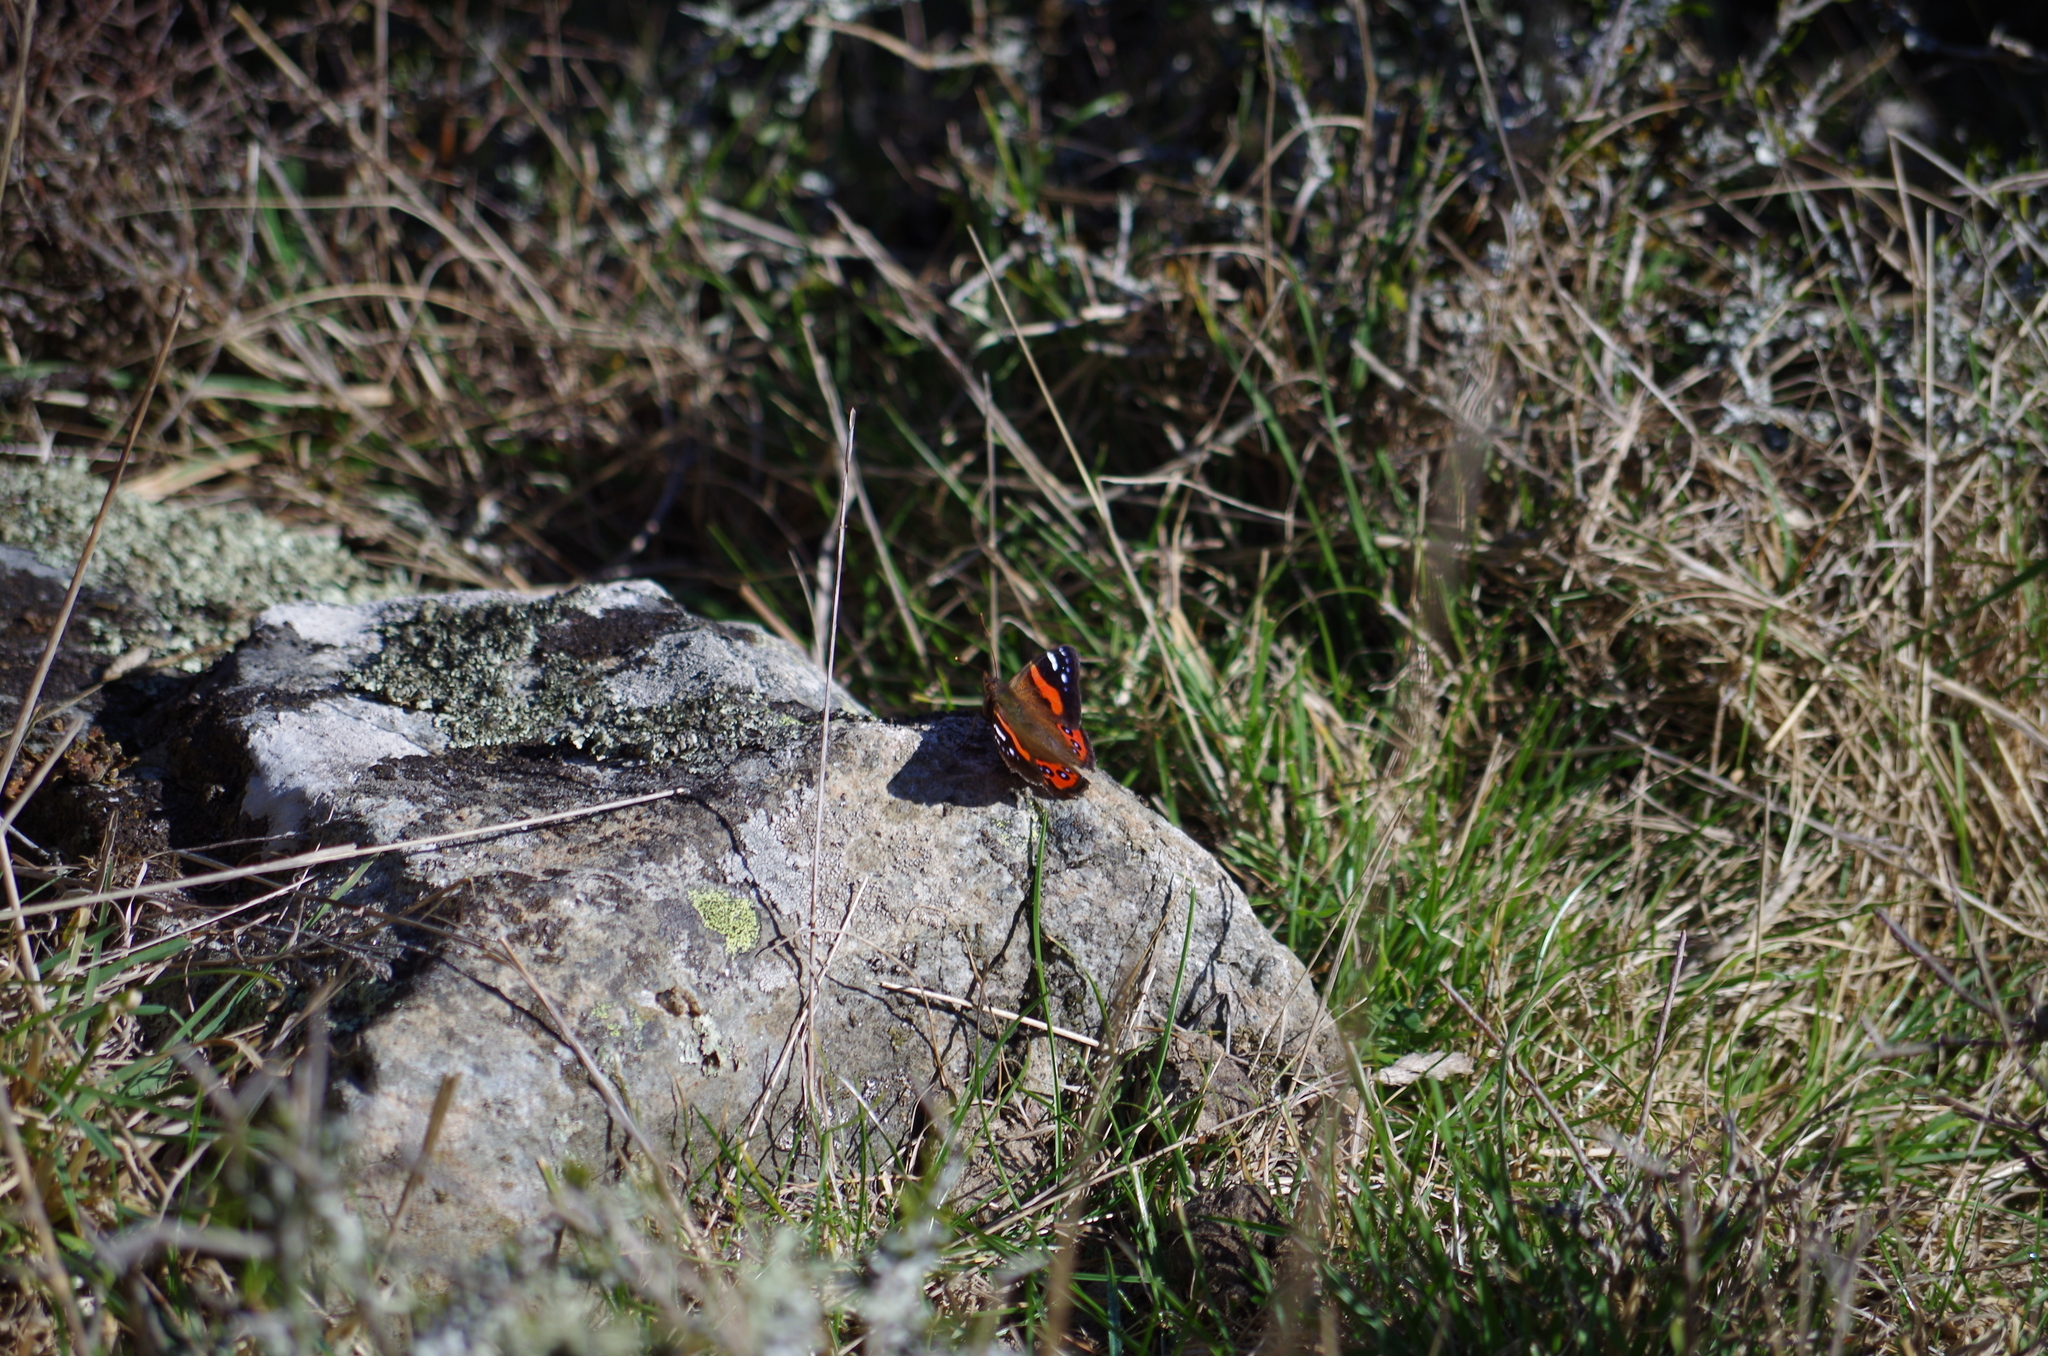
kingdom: Animalia
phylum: Arthropoda
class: Insecta
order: Lepidoptera
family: Nymphalidae
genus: Vanessa
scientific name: Vanessa gonerilla
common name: New zealand red admiral
